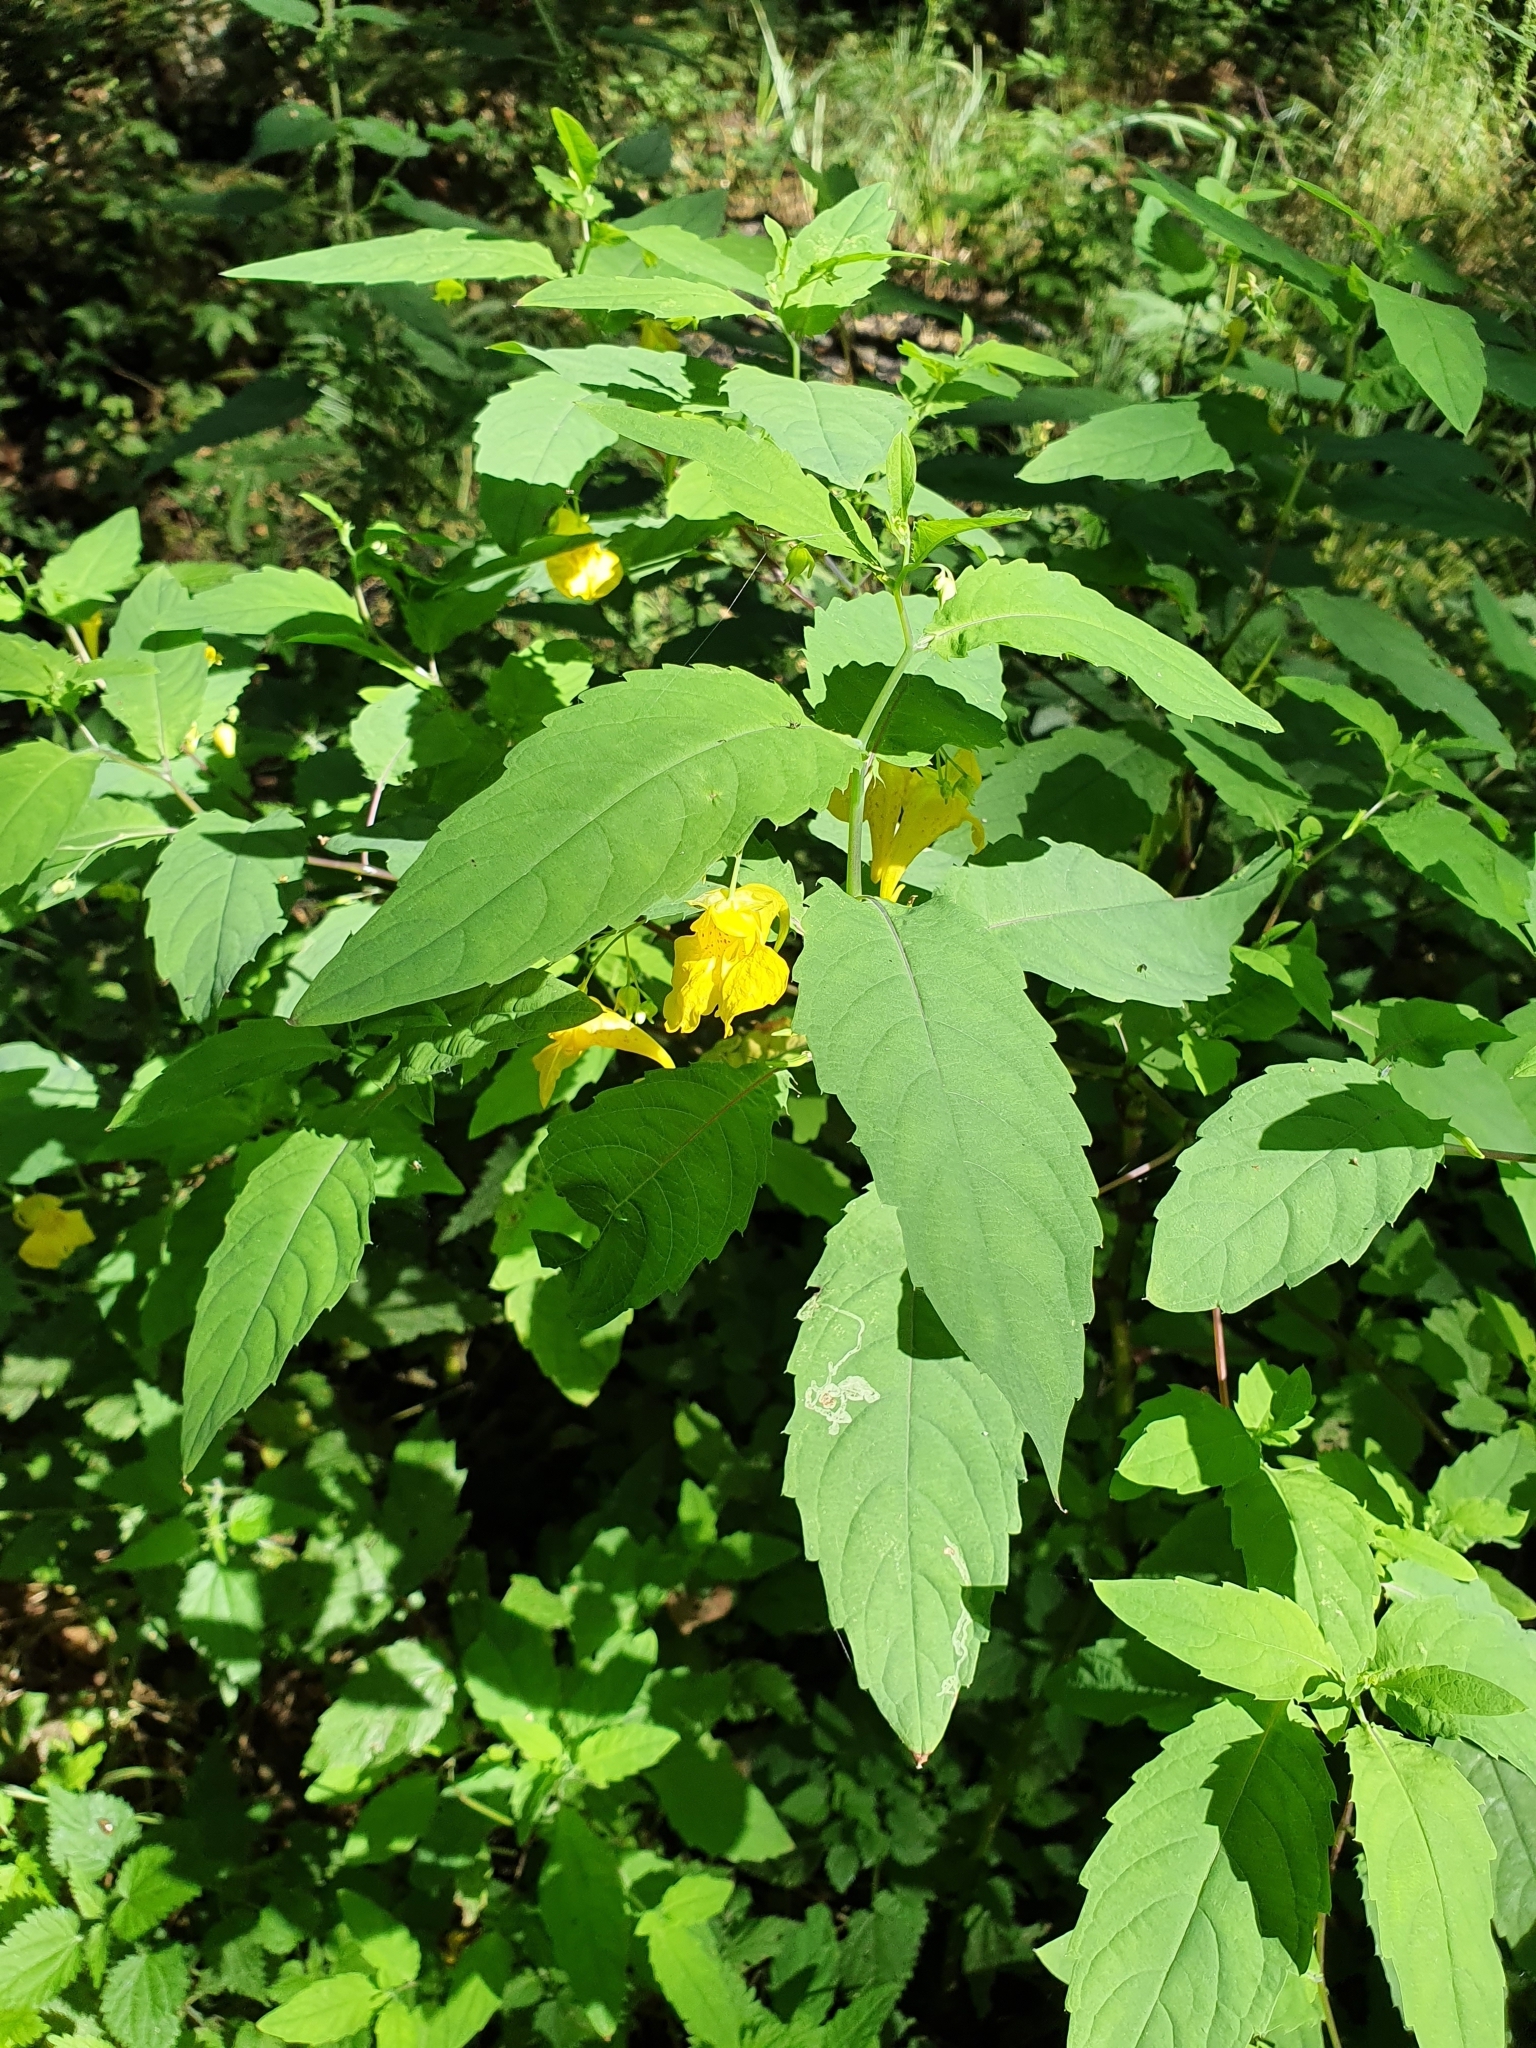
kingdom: Plantae
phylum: Tracheophyta
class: Magnoliopsida
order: Ericales
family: Balsaminaceae
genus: Impatiens
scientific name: Impatiens noli-tangere
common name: Touch-me-not balsam
